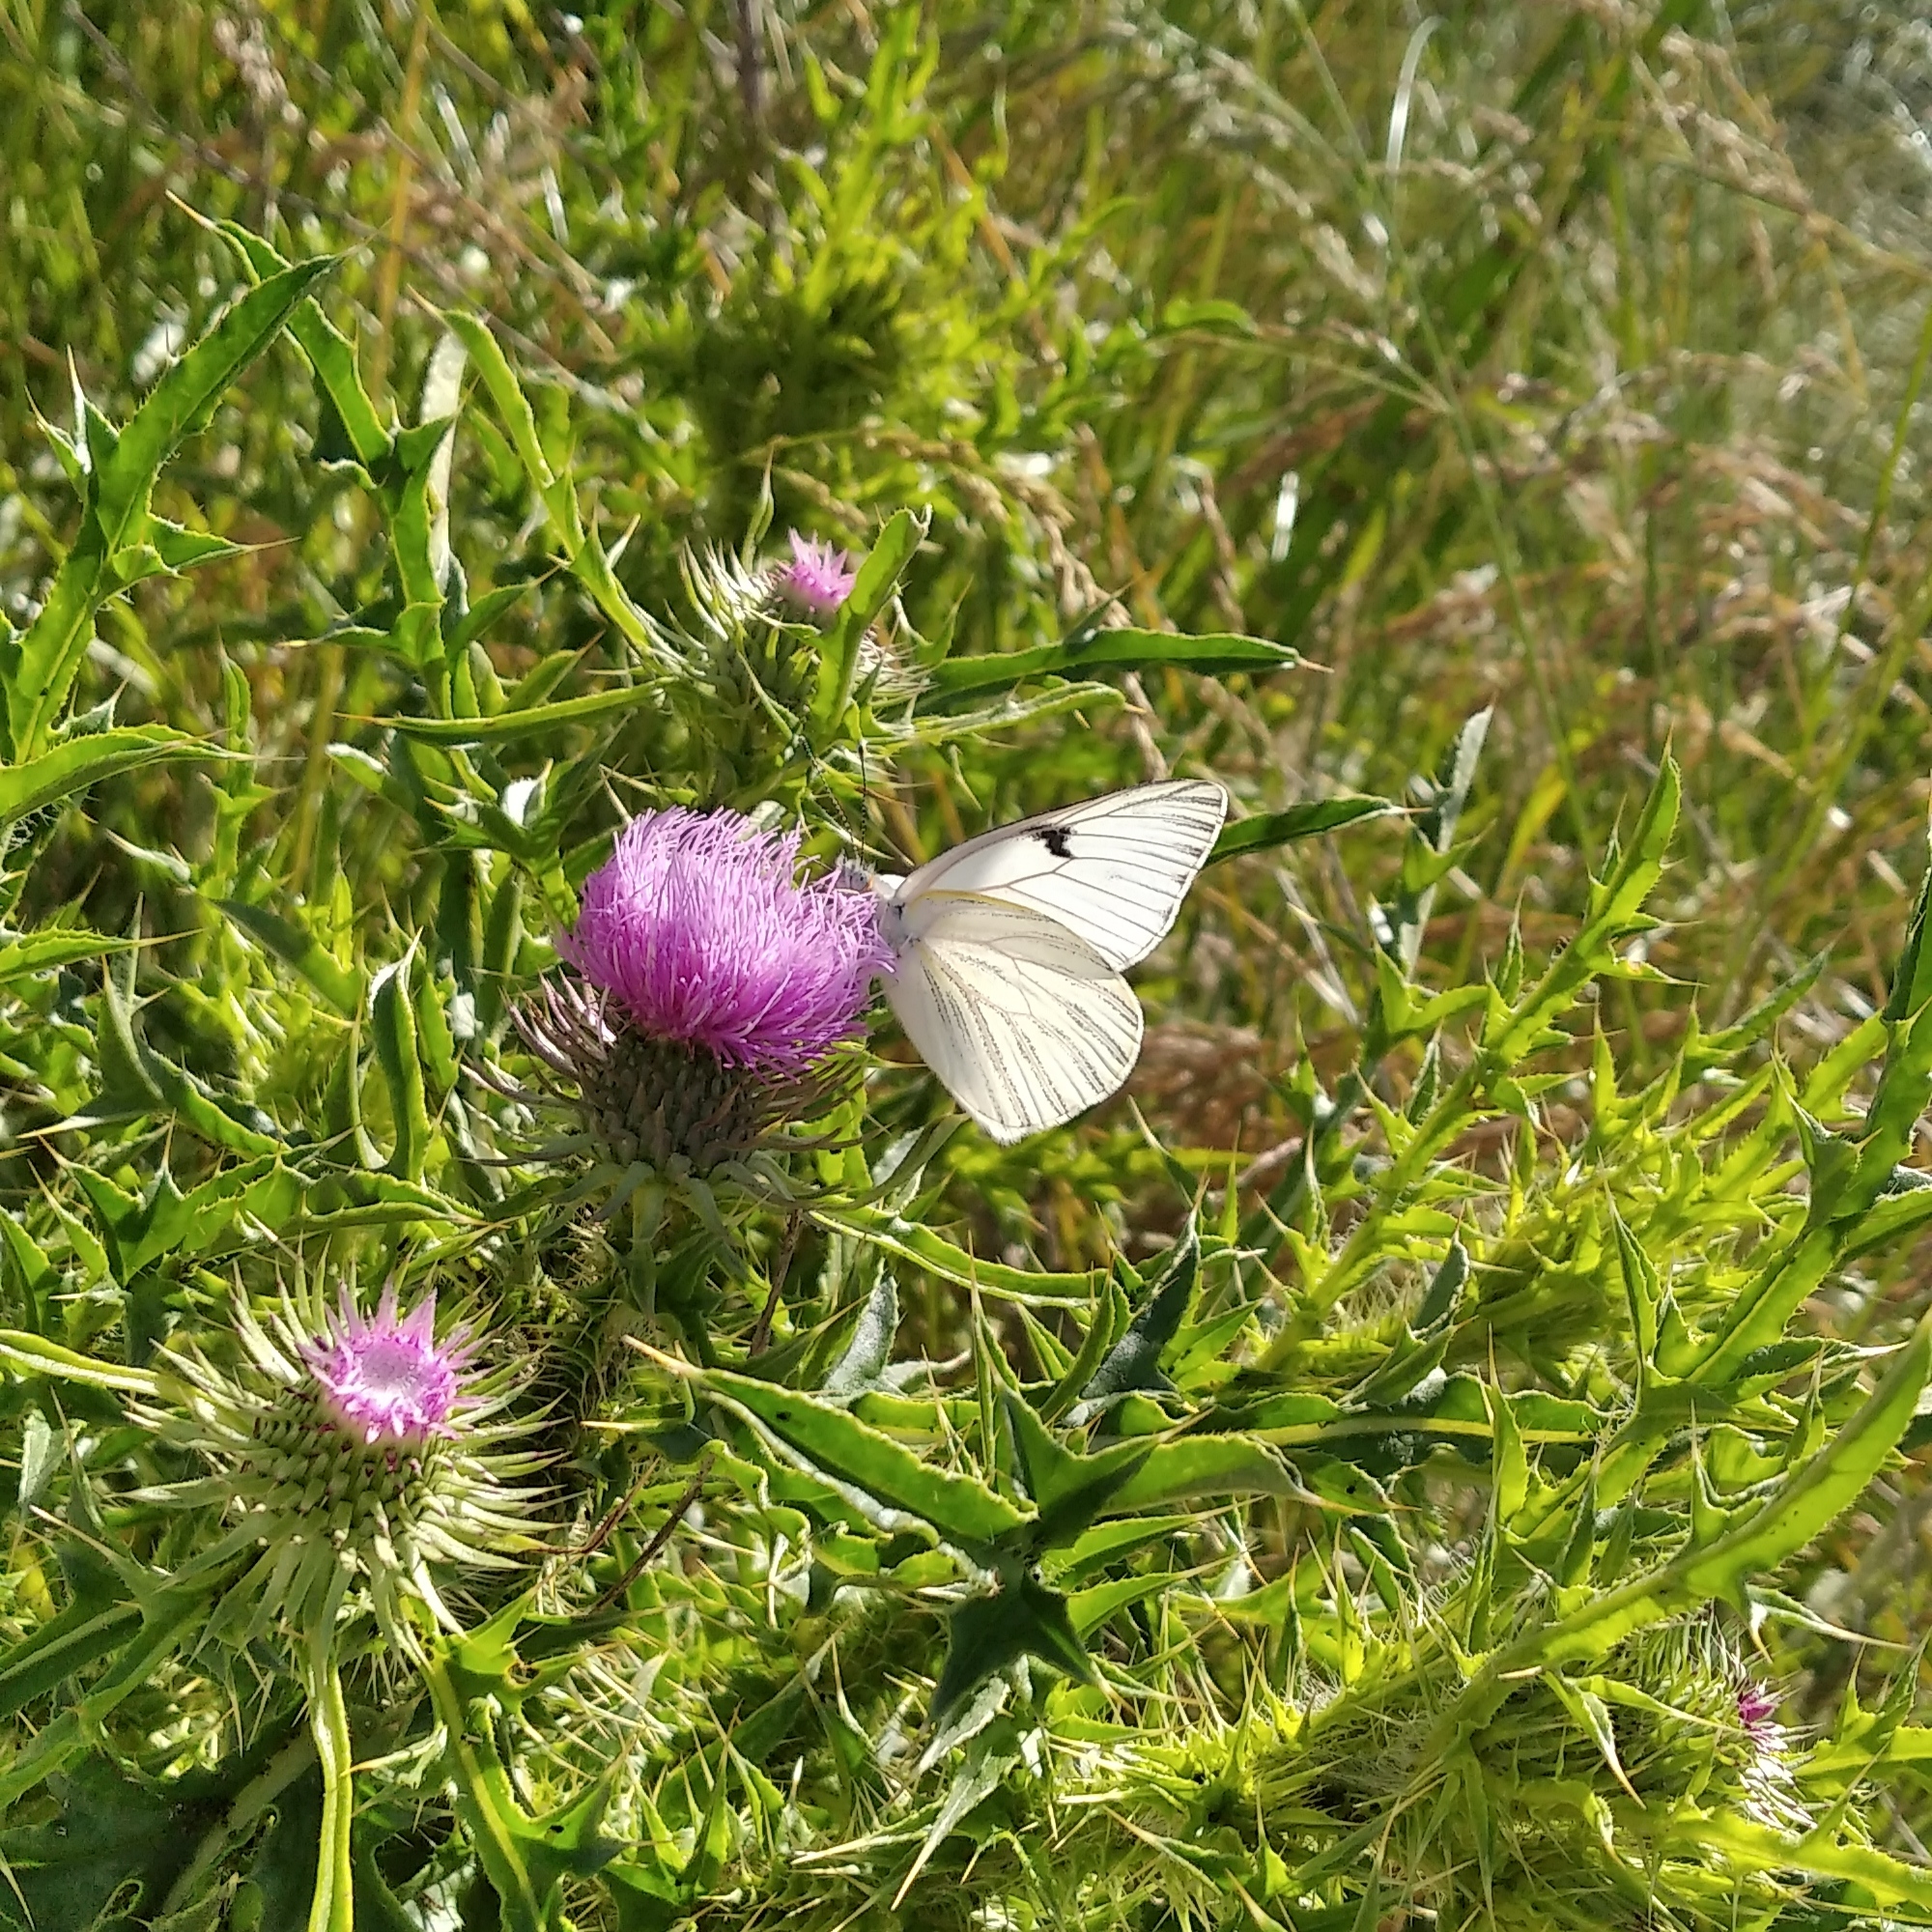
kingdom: Animalia
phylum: Arthropoda
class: Insecta
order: Lepidoptera
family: Pieridae
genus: Tatochila
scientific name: Tatochila mercedis
